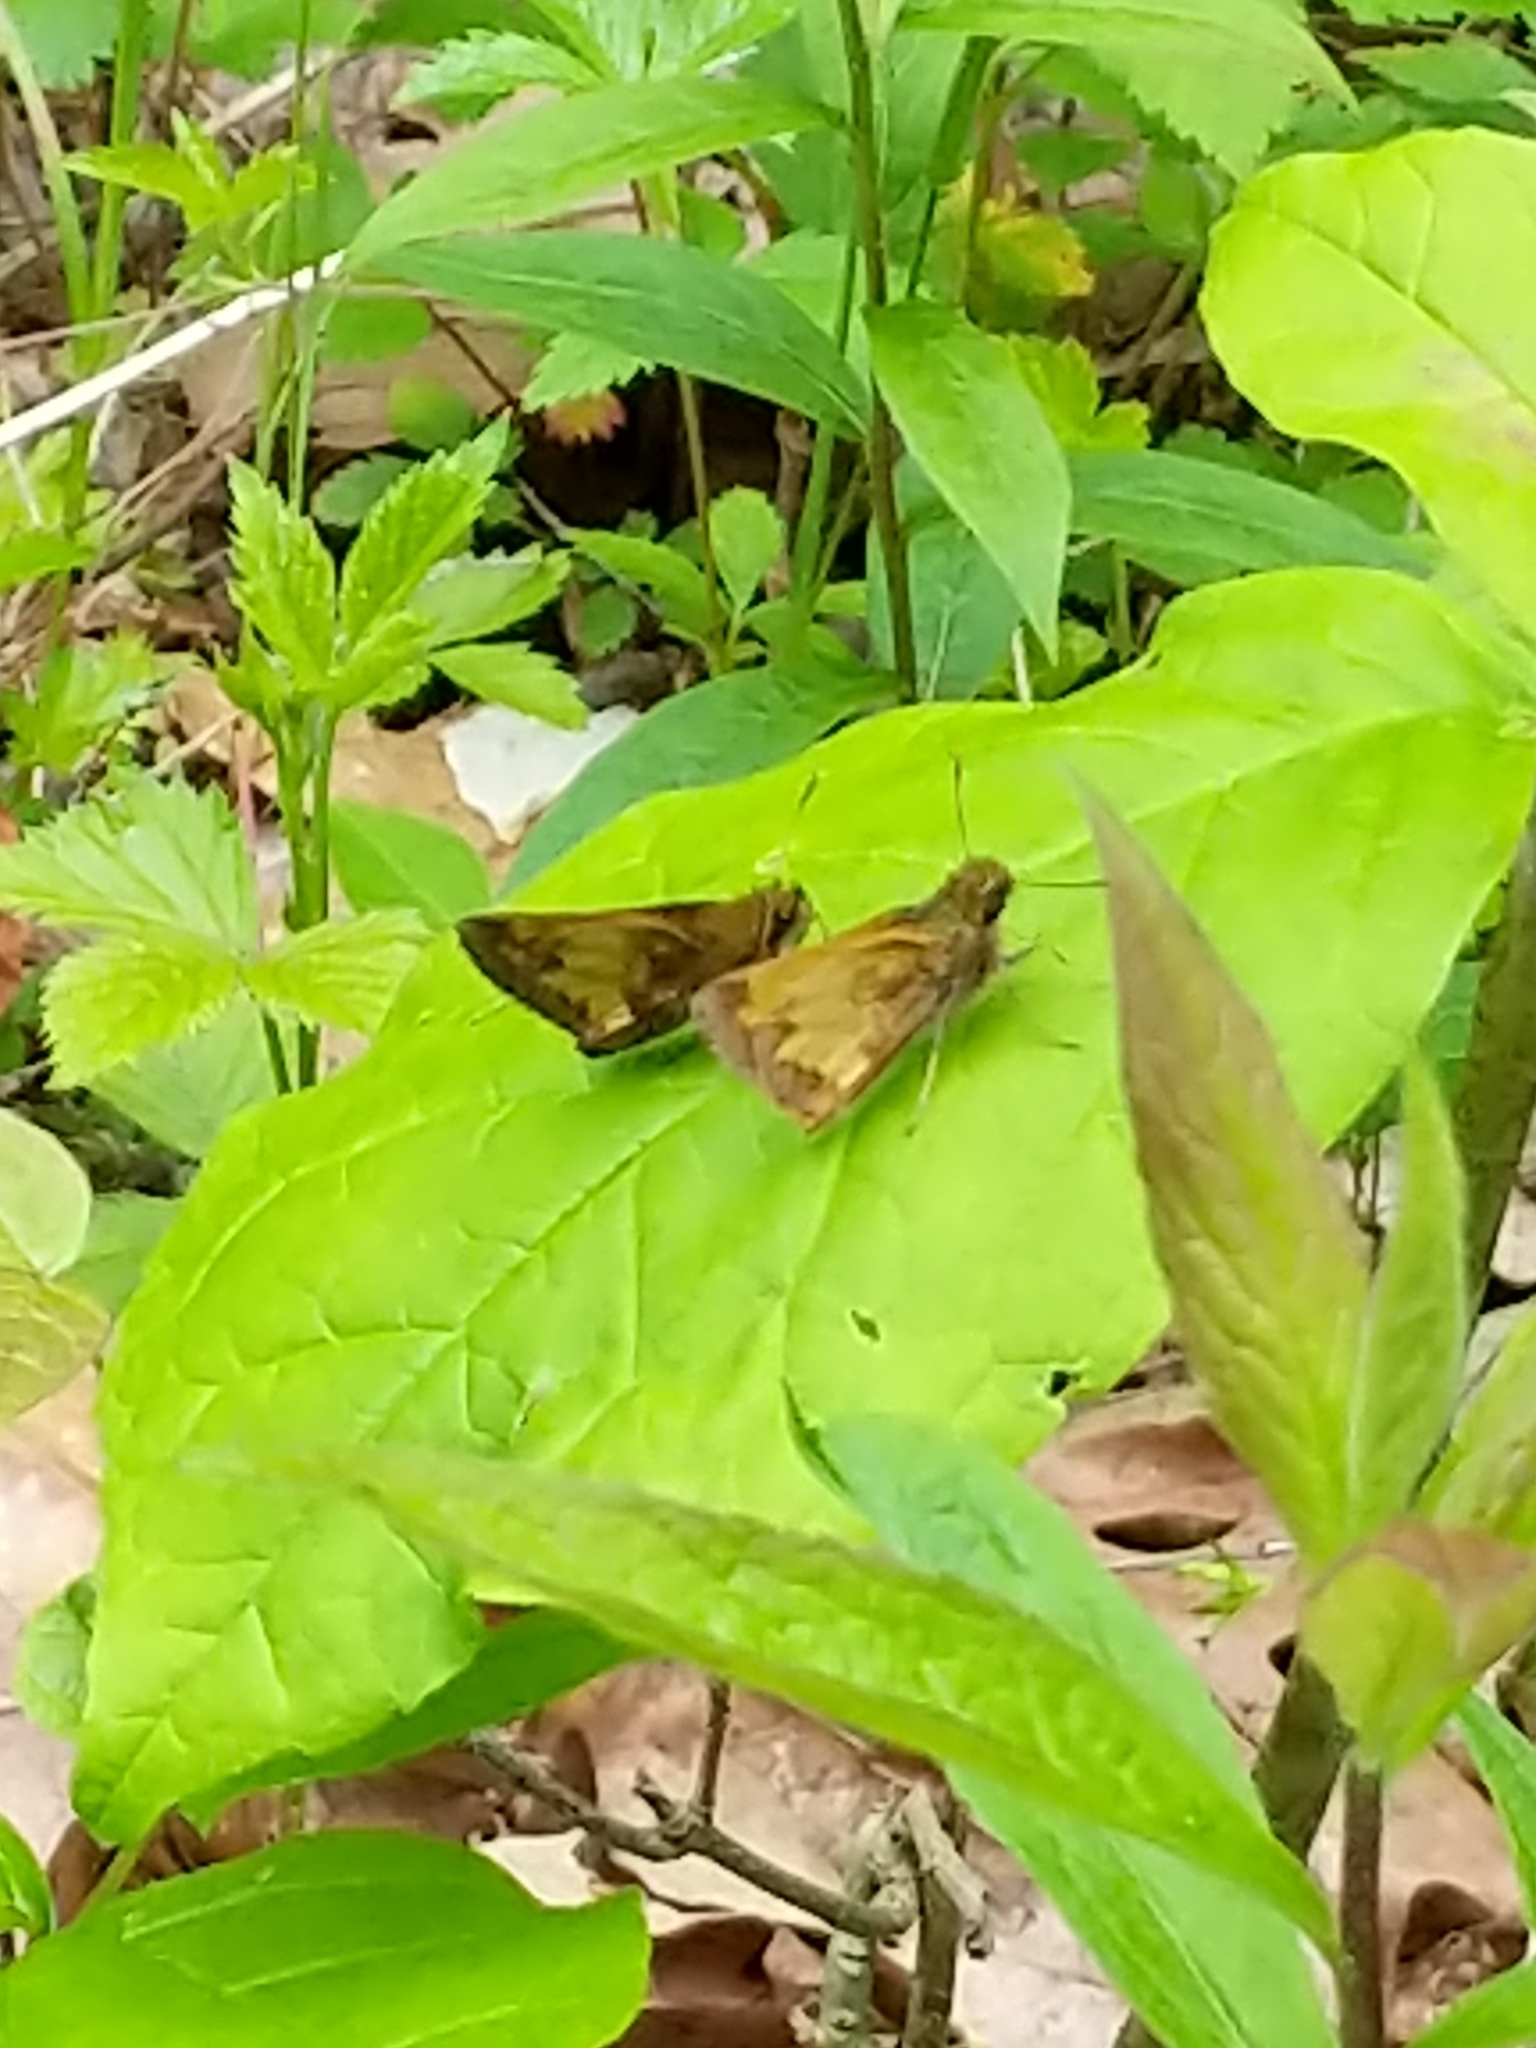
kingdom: Animalia
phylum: Arthropoda
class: Insecta
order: Lepidoptera
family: Hesperiidae
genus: Lon
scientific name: Lon hobomok
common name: Hobomok skipper
